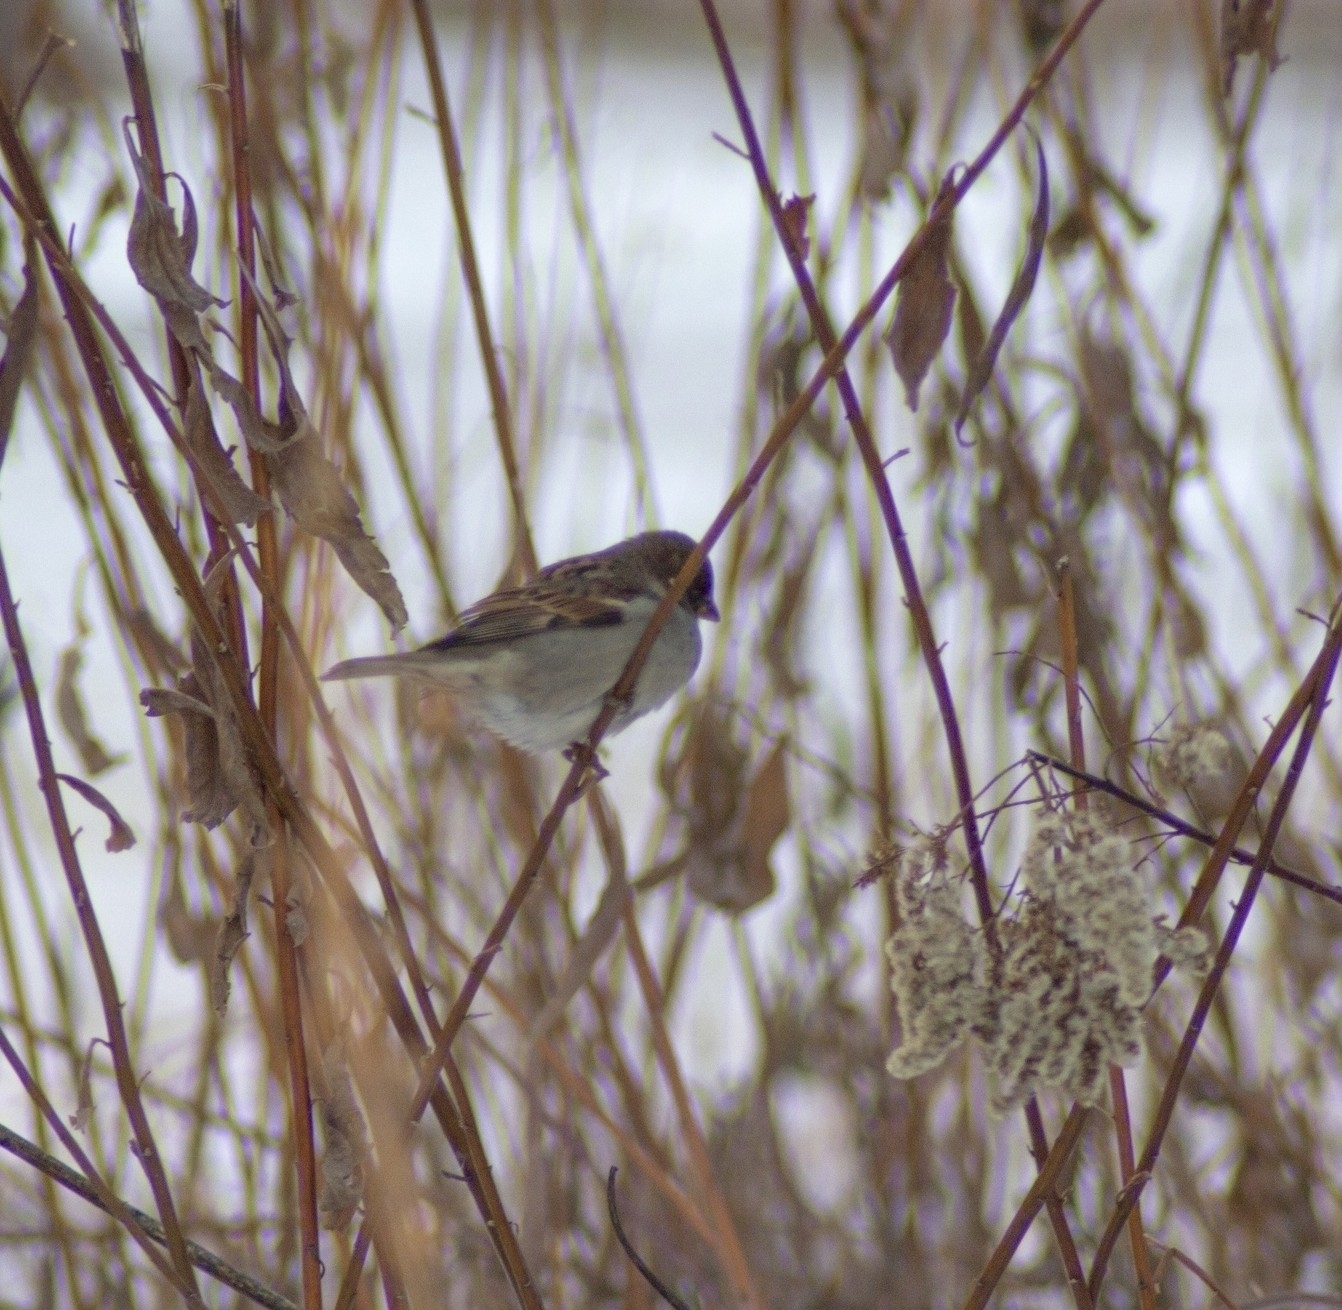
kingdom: Animalia
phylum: Chordata
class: Aves
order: Passeriformes
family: Passeridae
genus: Passer
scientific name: Passer domesticus
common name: House sparrow
